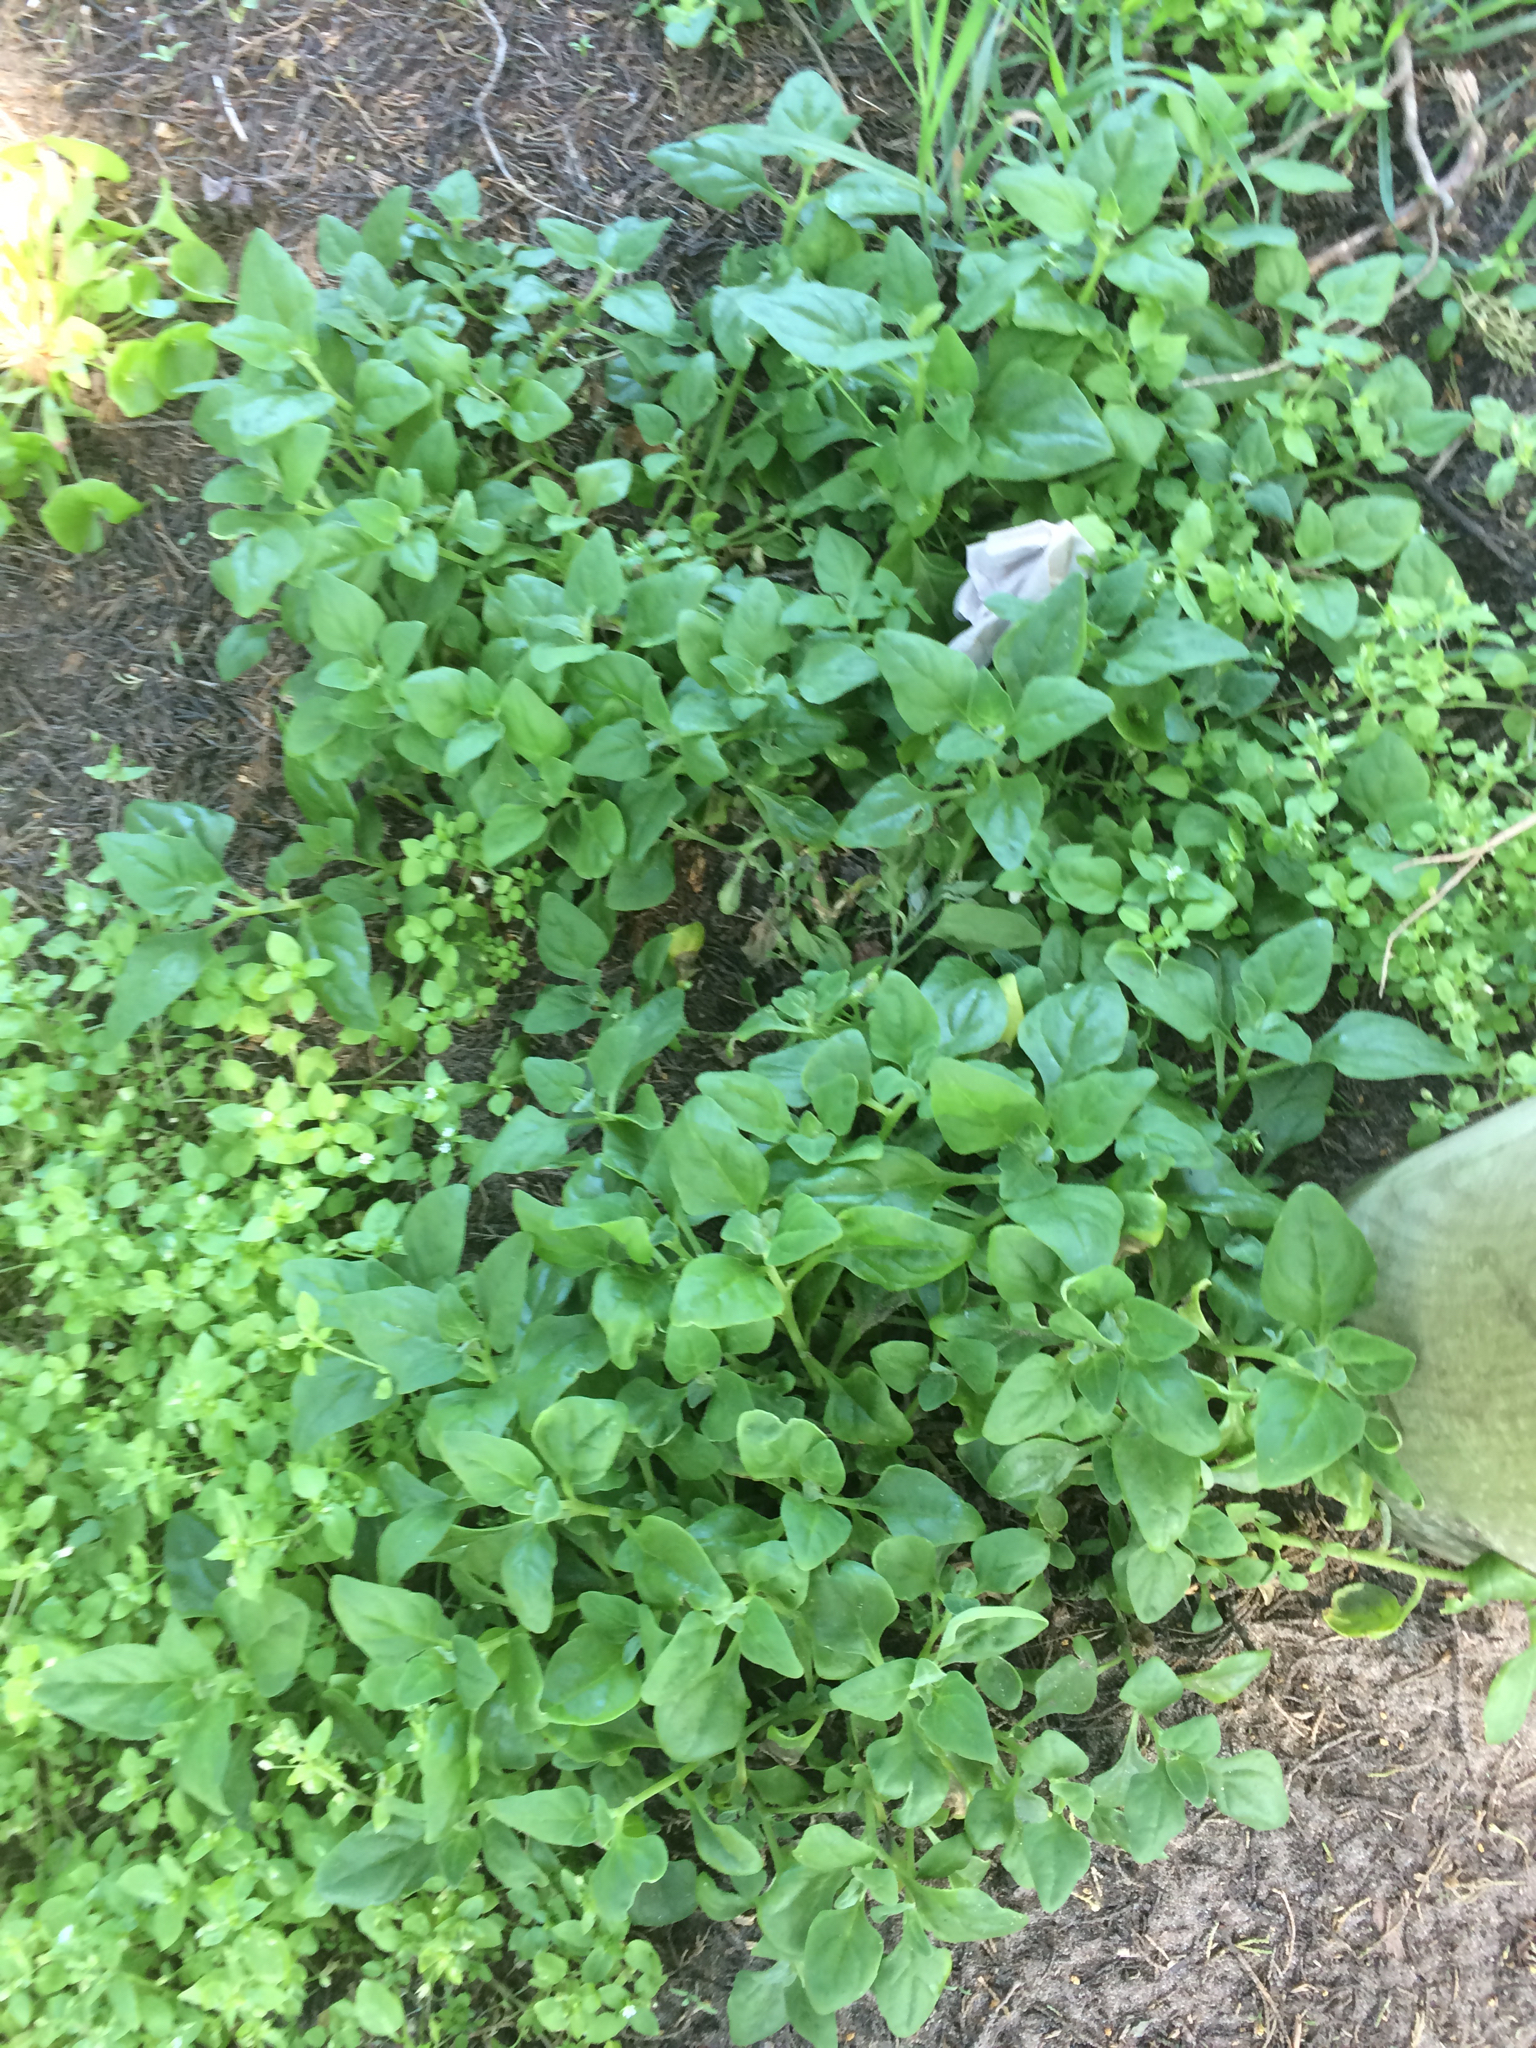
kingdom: Plantae
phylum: Tracheophyta
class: Magnoliopsida
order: Caryophyllales
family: Aizoaceae
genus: Tetragonia
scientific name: Tetragonia tetragonoides
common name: New zealand-spinach
